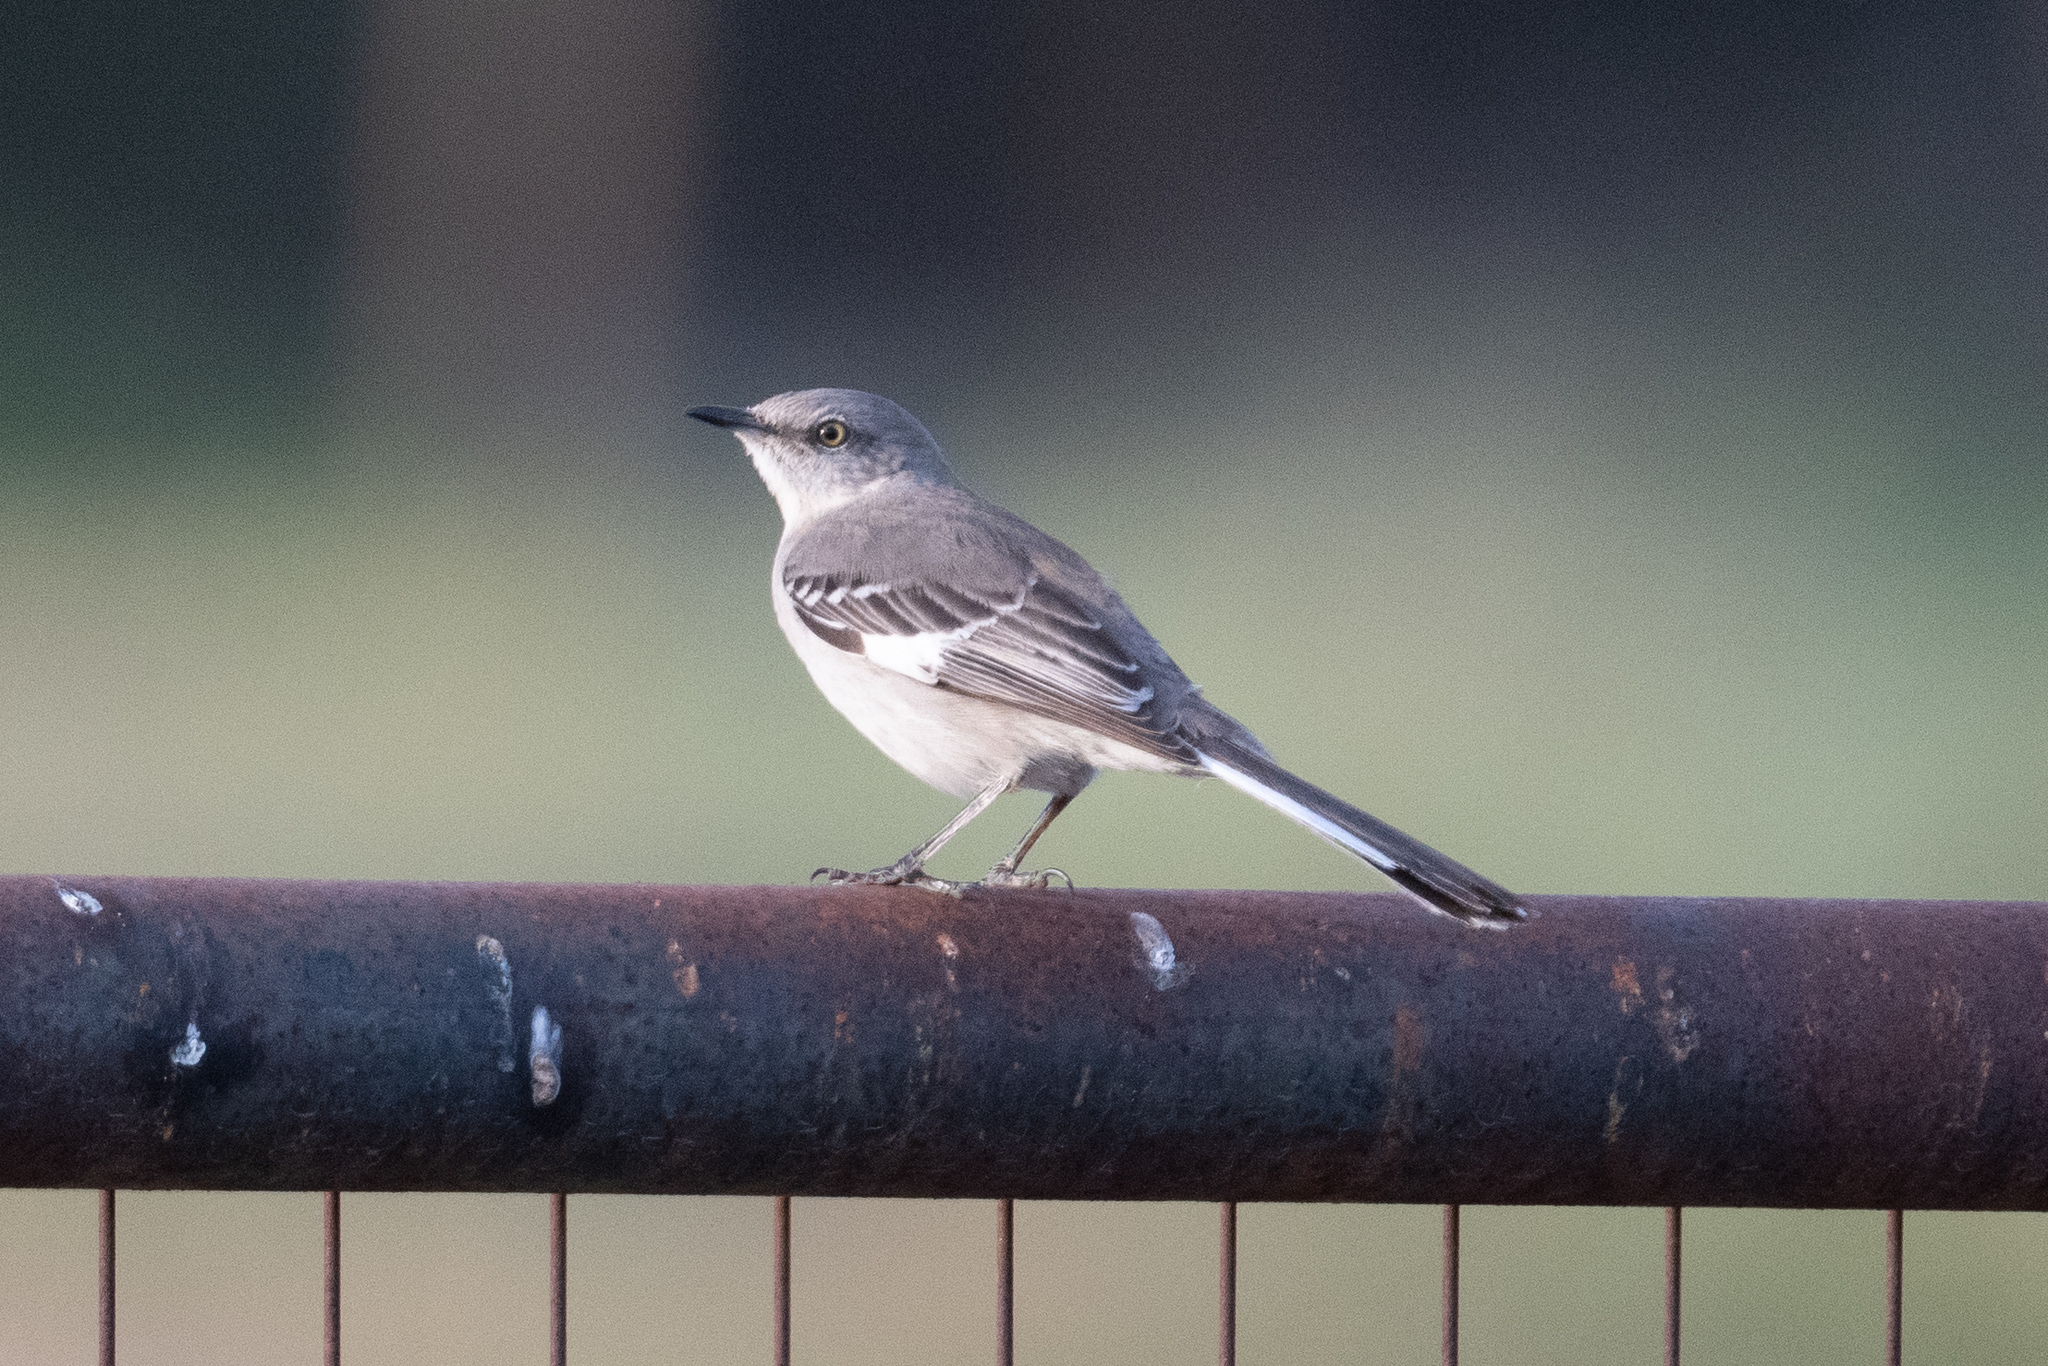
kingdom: Animalia
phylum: Chordata
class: Aves
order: Passeriformes
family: Mimidae
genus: Mimus
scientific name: Mimus polyglottos
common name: Northern mockingbird
